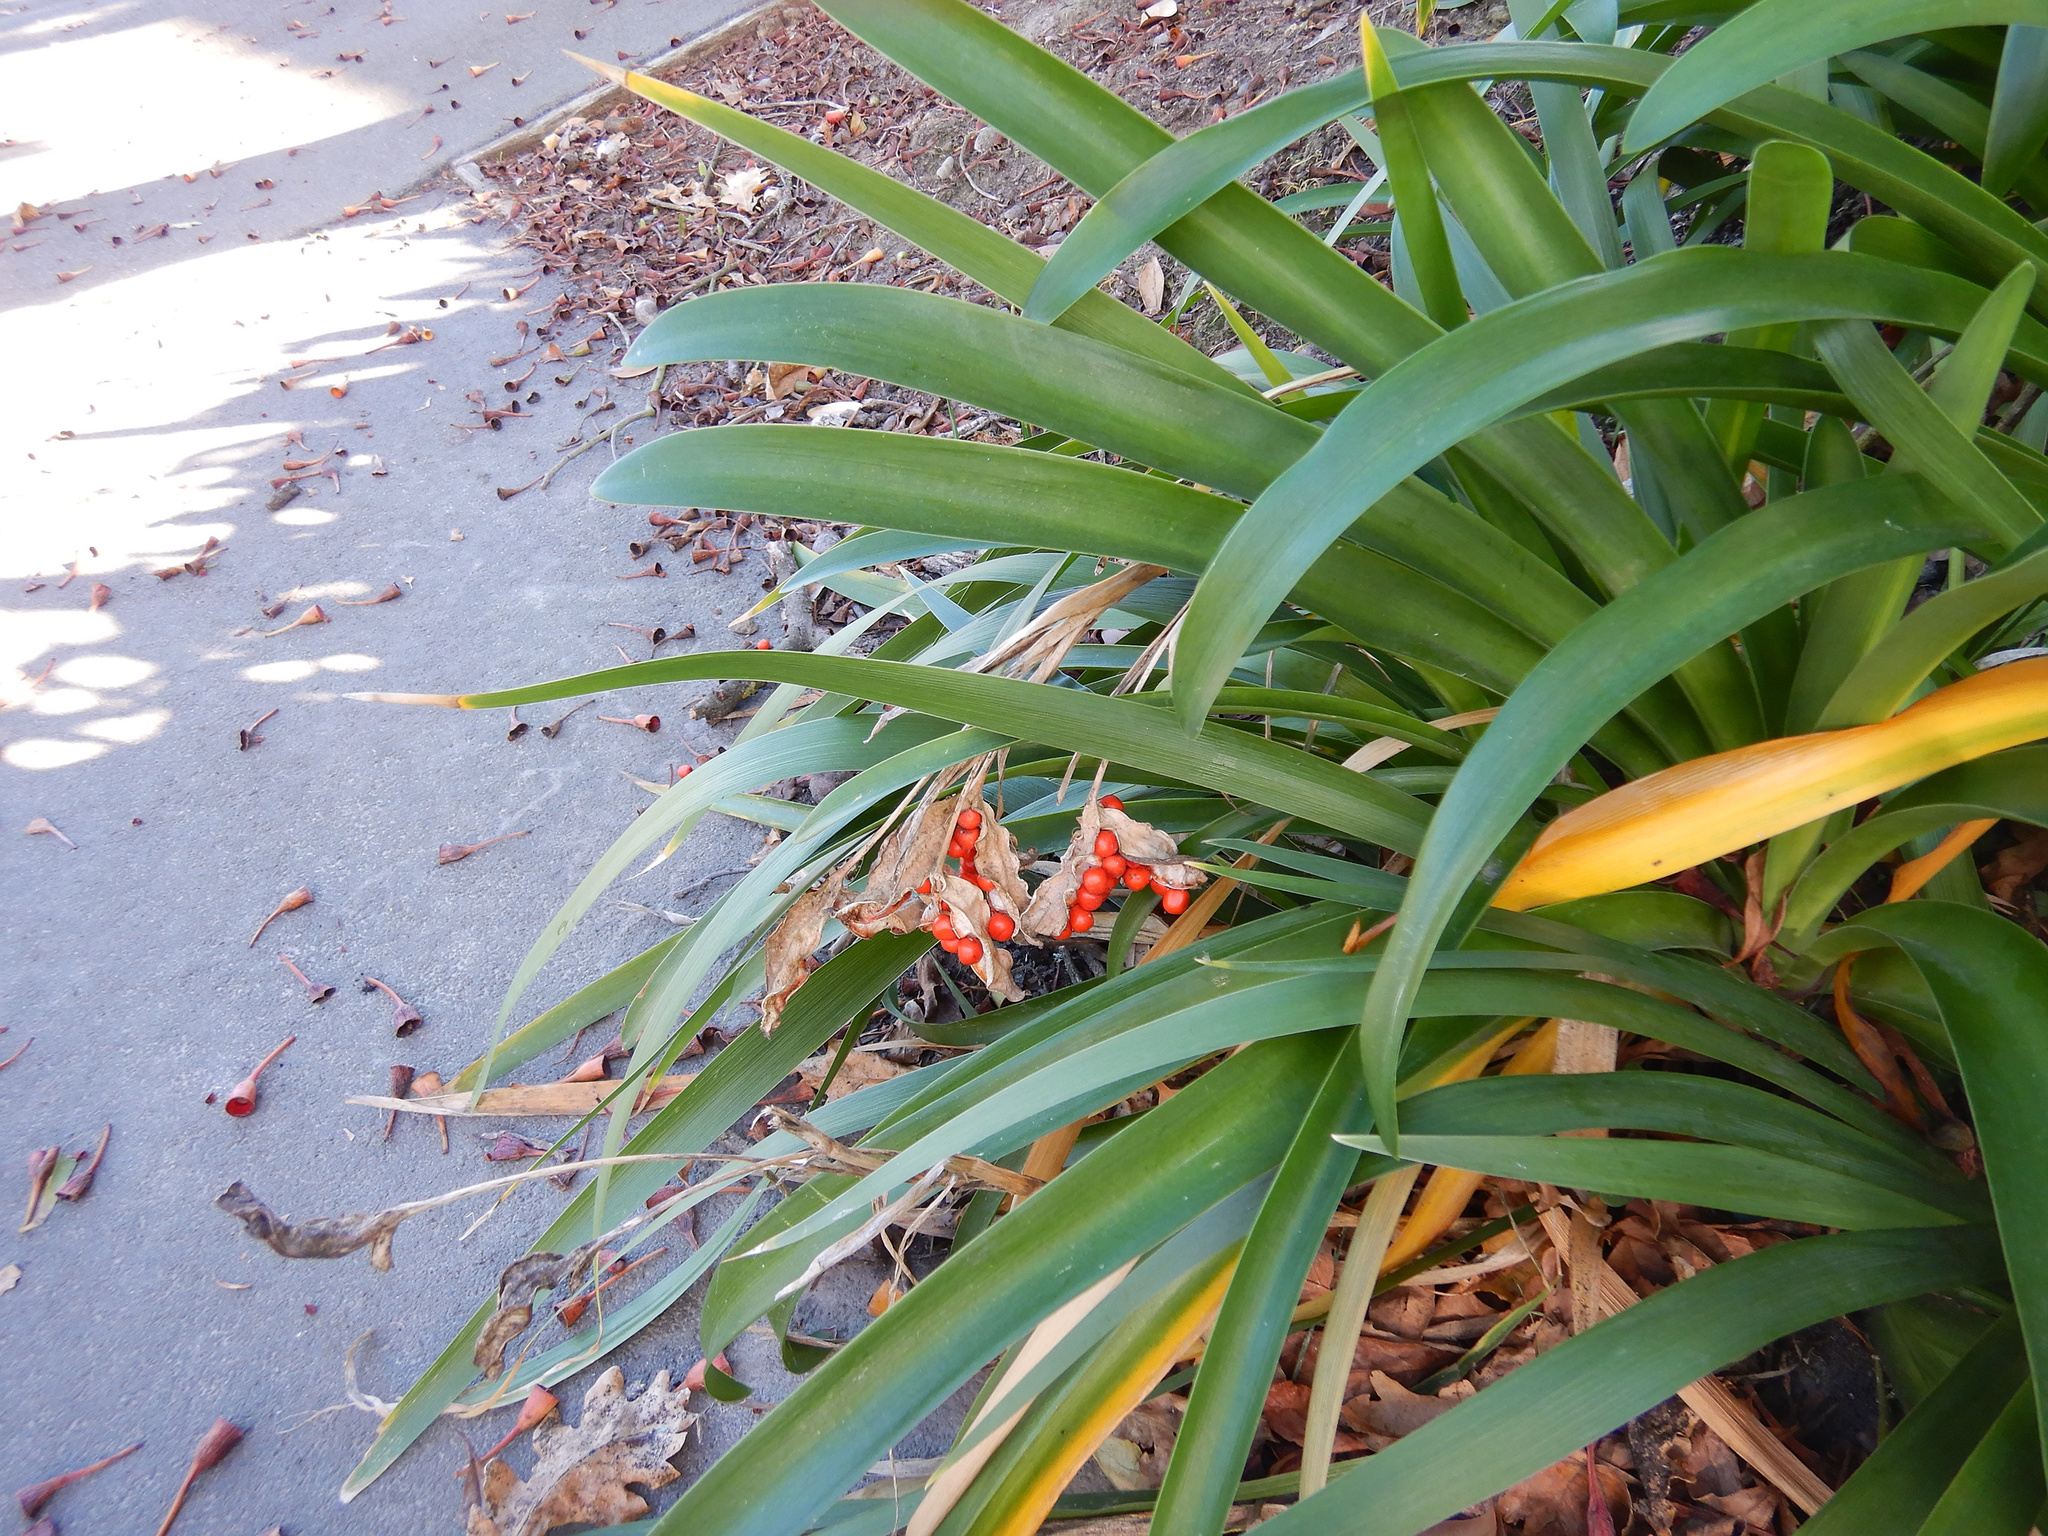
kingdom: Plantae
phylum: Tracheophyta
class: Liliopsida
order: Asparagales
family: Iridaceae
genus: Iris
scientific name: Iris foetidissima
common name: Stinking iris
